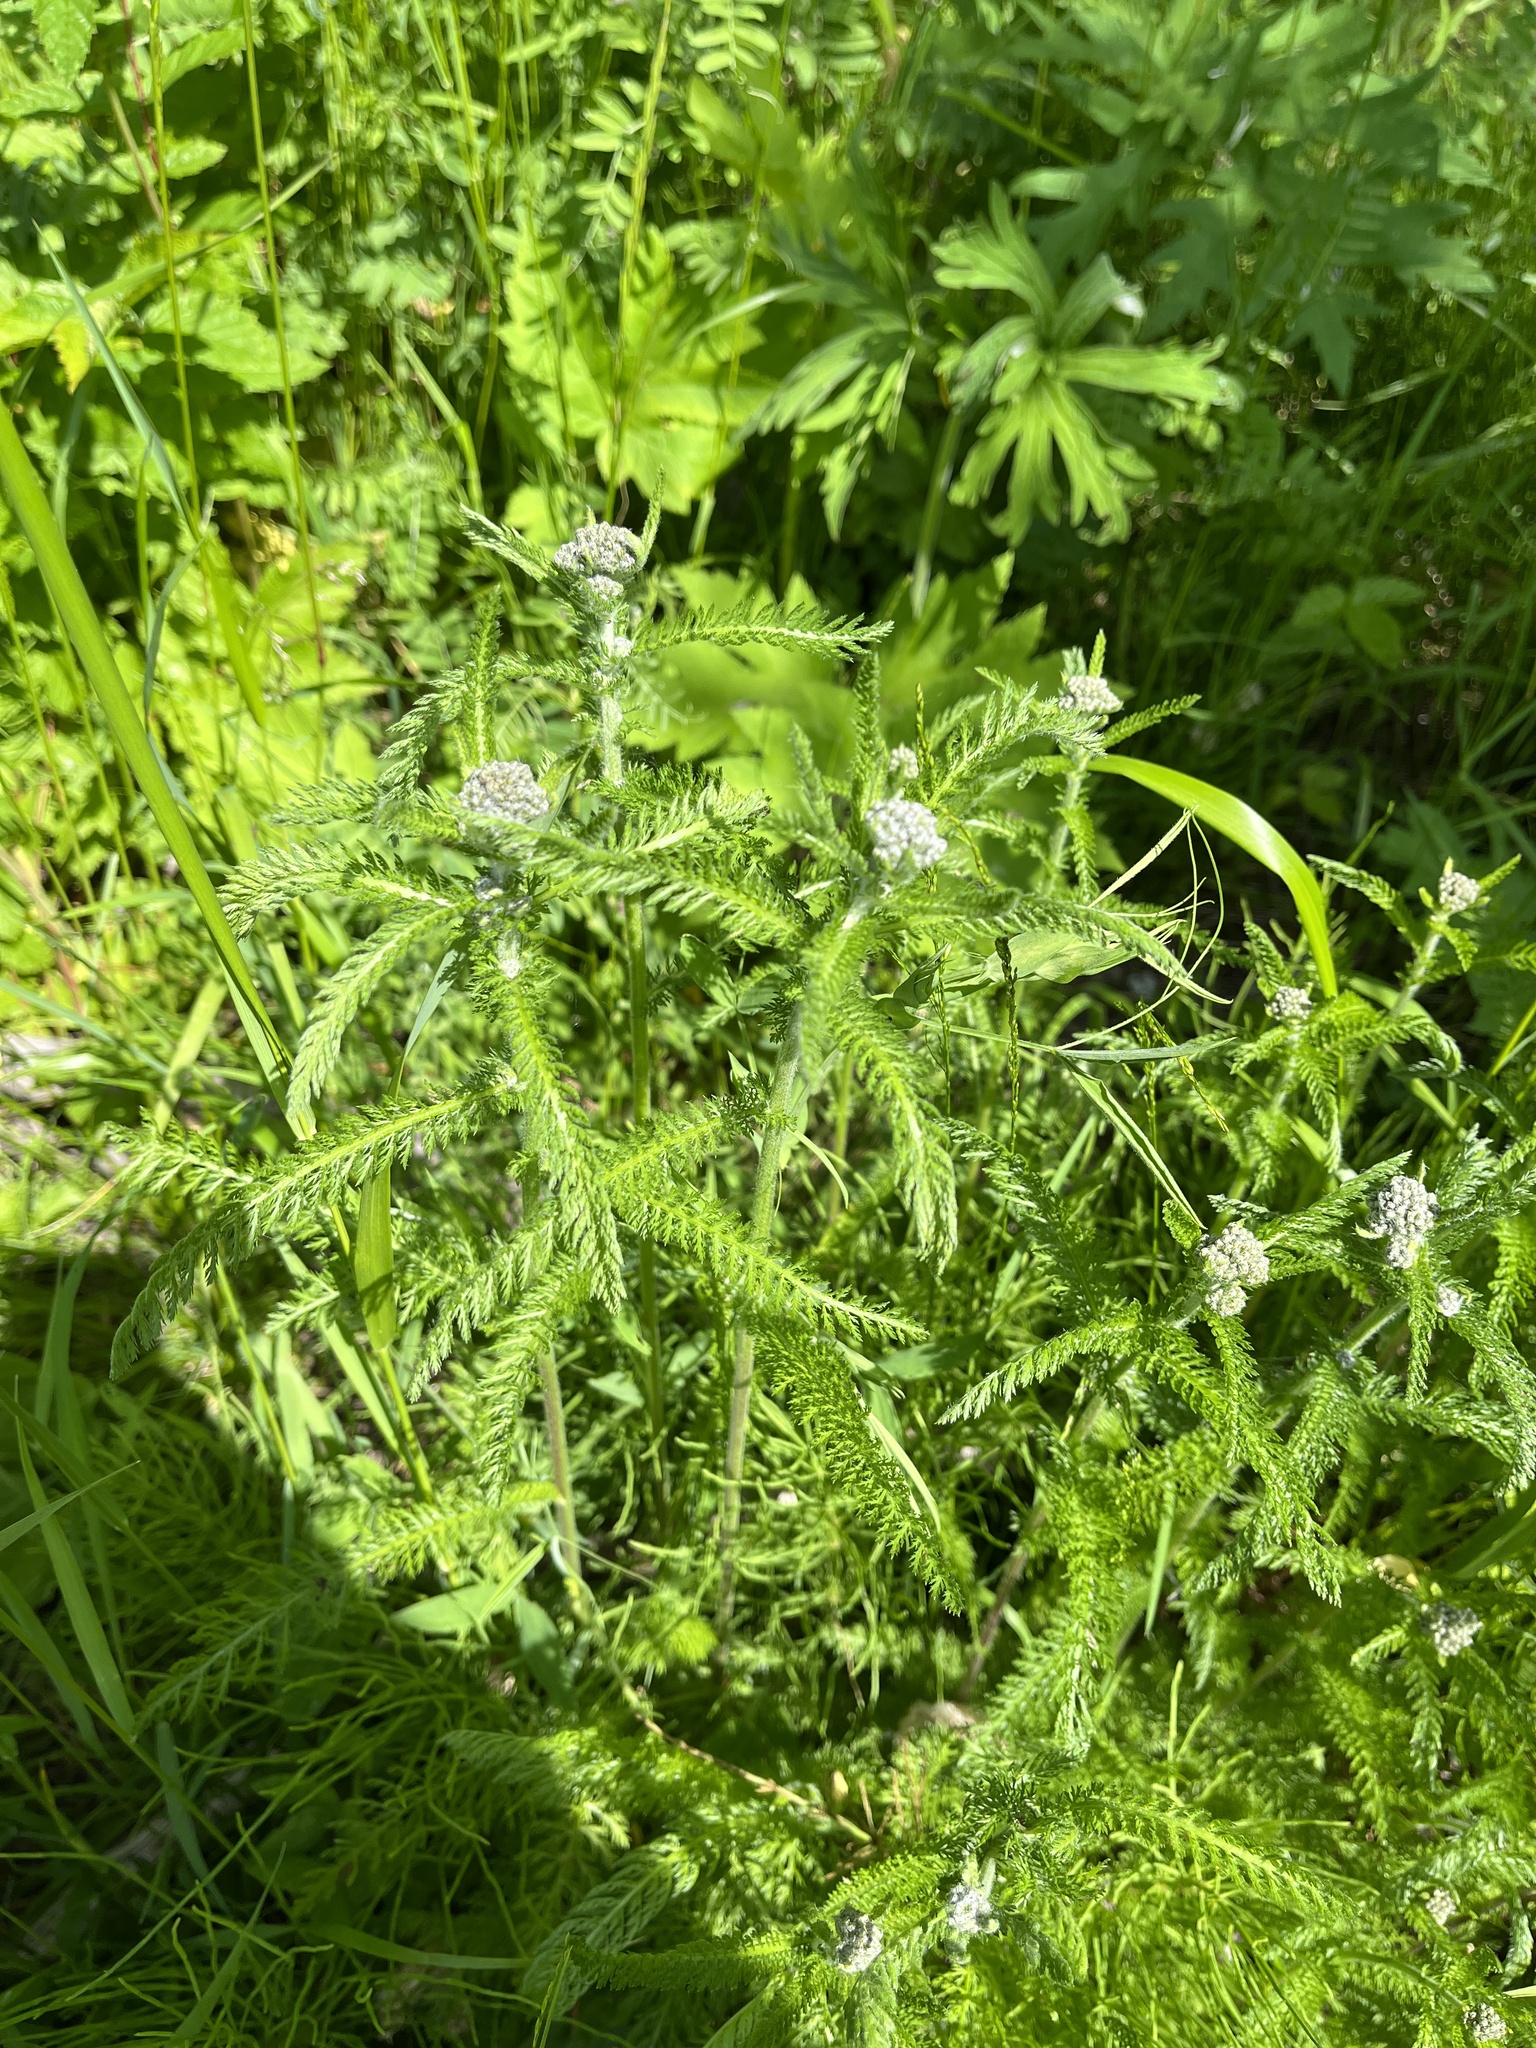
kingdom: Plantae
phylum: Tracheophyta
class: Magnoliopsida
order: Asterales
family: Asteraceae
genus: Achillea
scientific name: Achillea millefolium
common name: Yarrow
